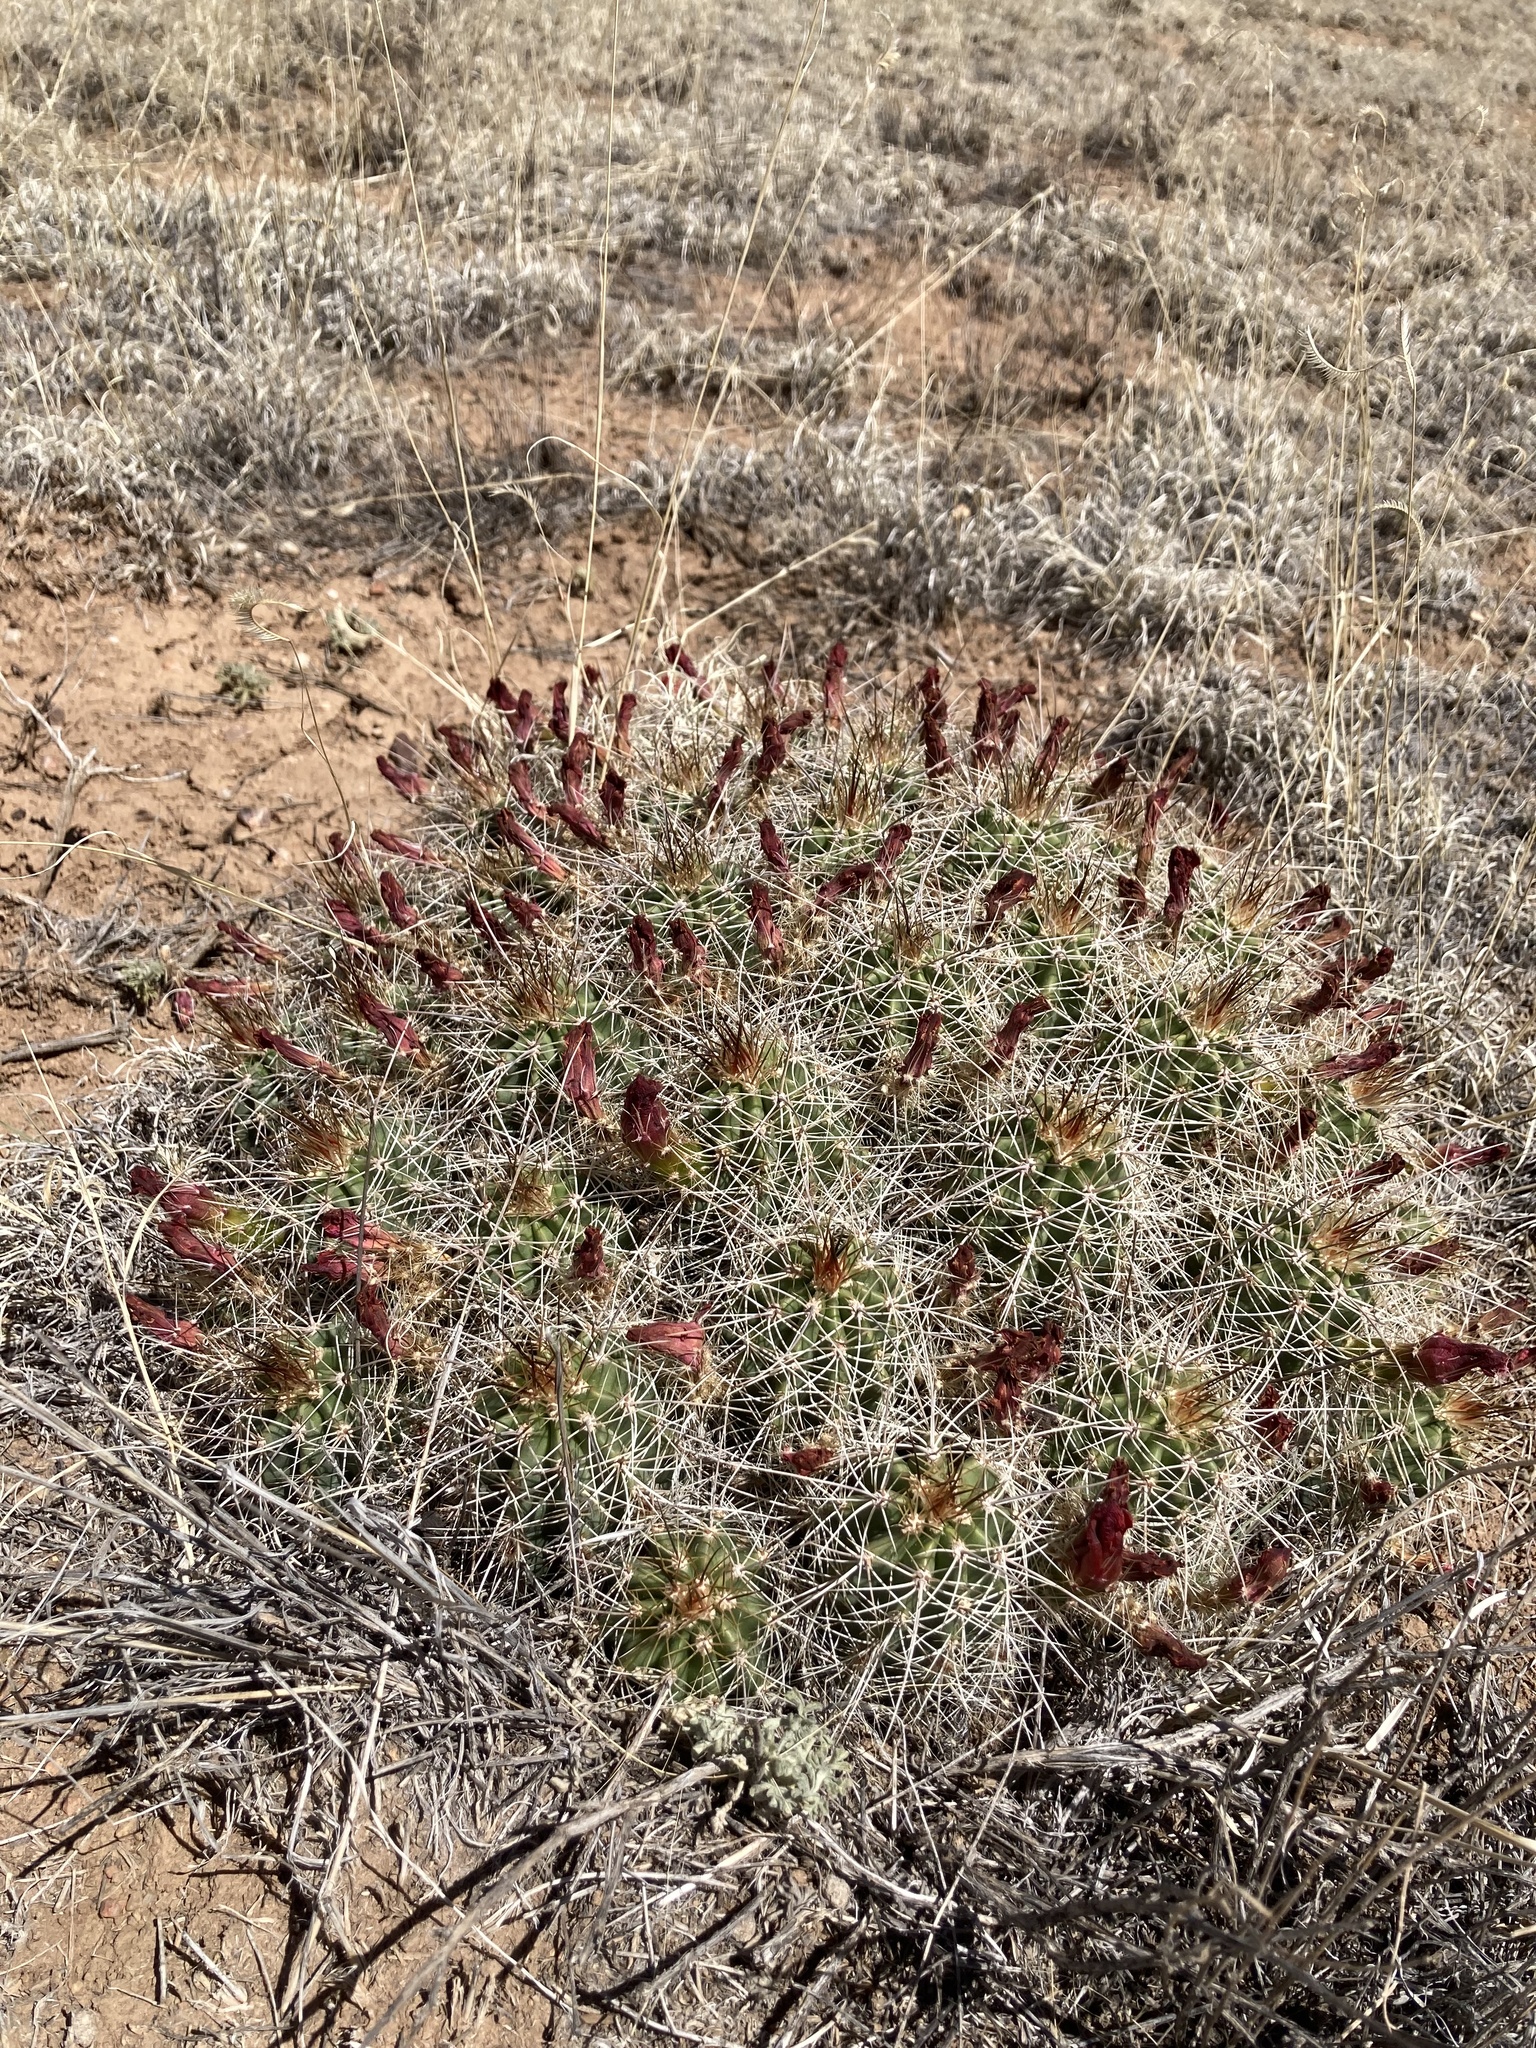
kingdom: Plantae
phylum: Tracheophyta
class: Magnoliopsida
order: Caryophyllales
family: Cactaceae
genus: Echinocereus
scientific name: Echinocereus coccineus
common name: Scarlet hedgehog cactus
